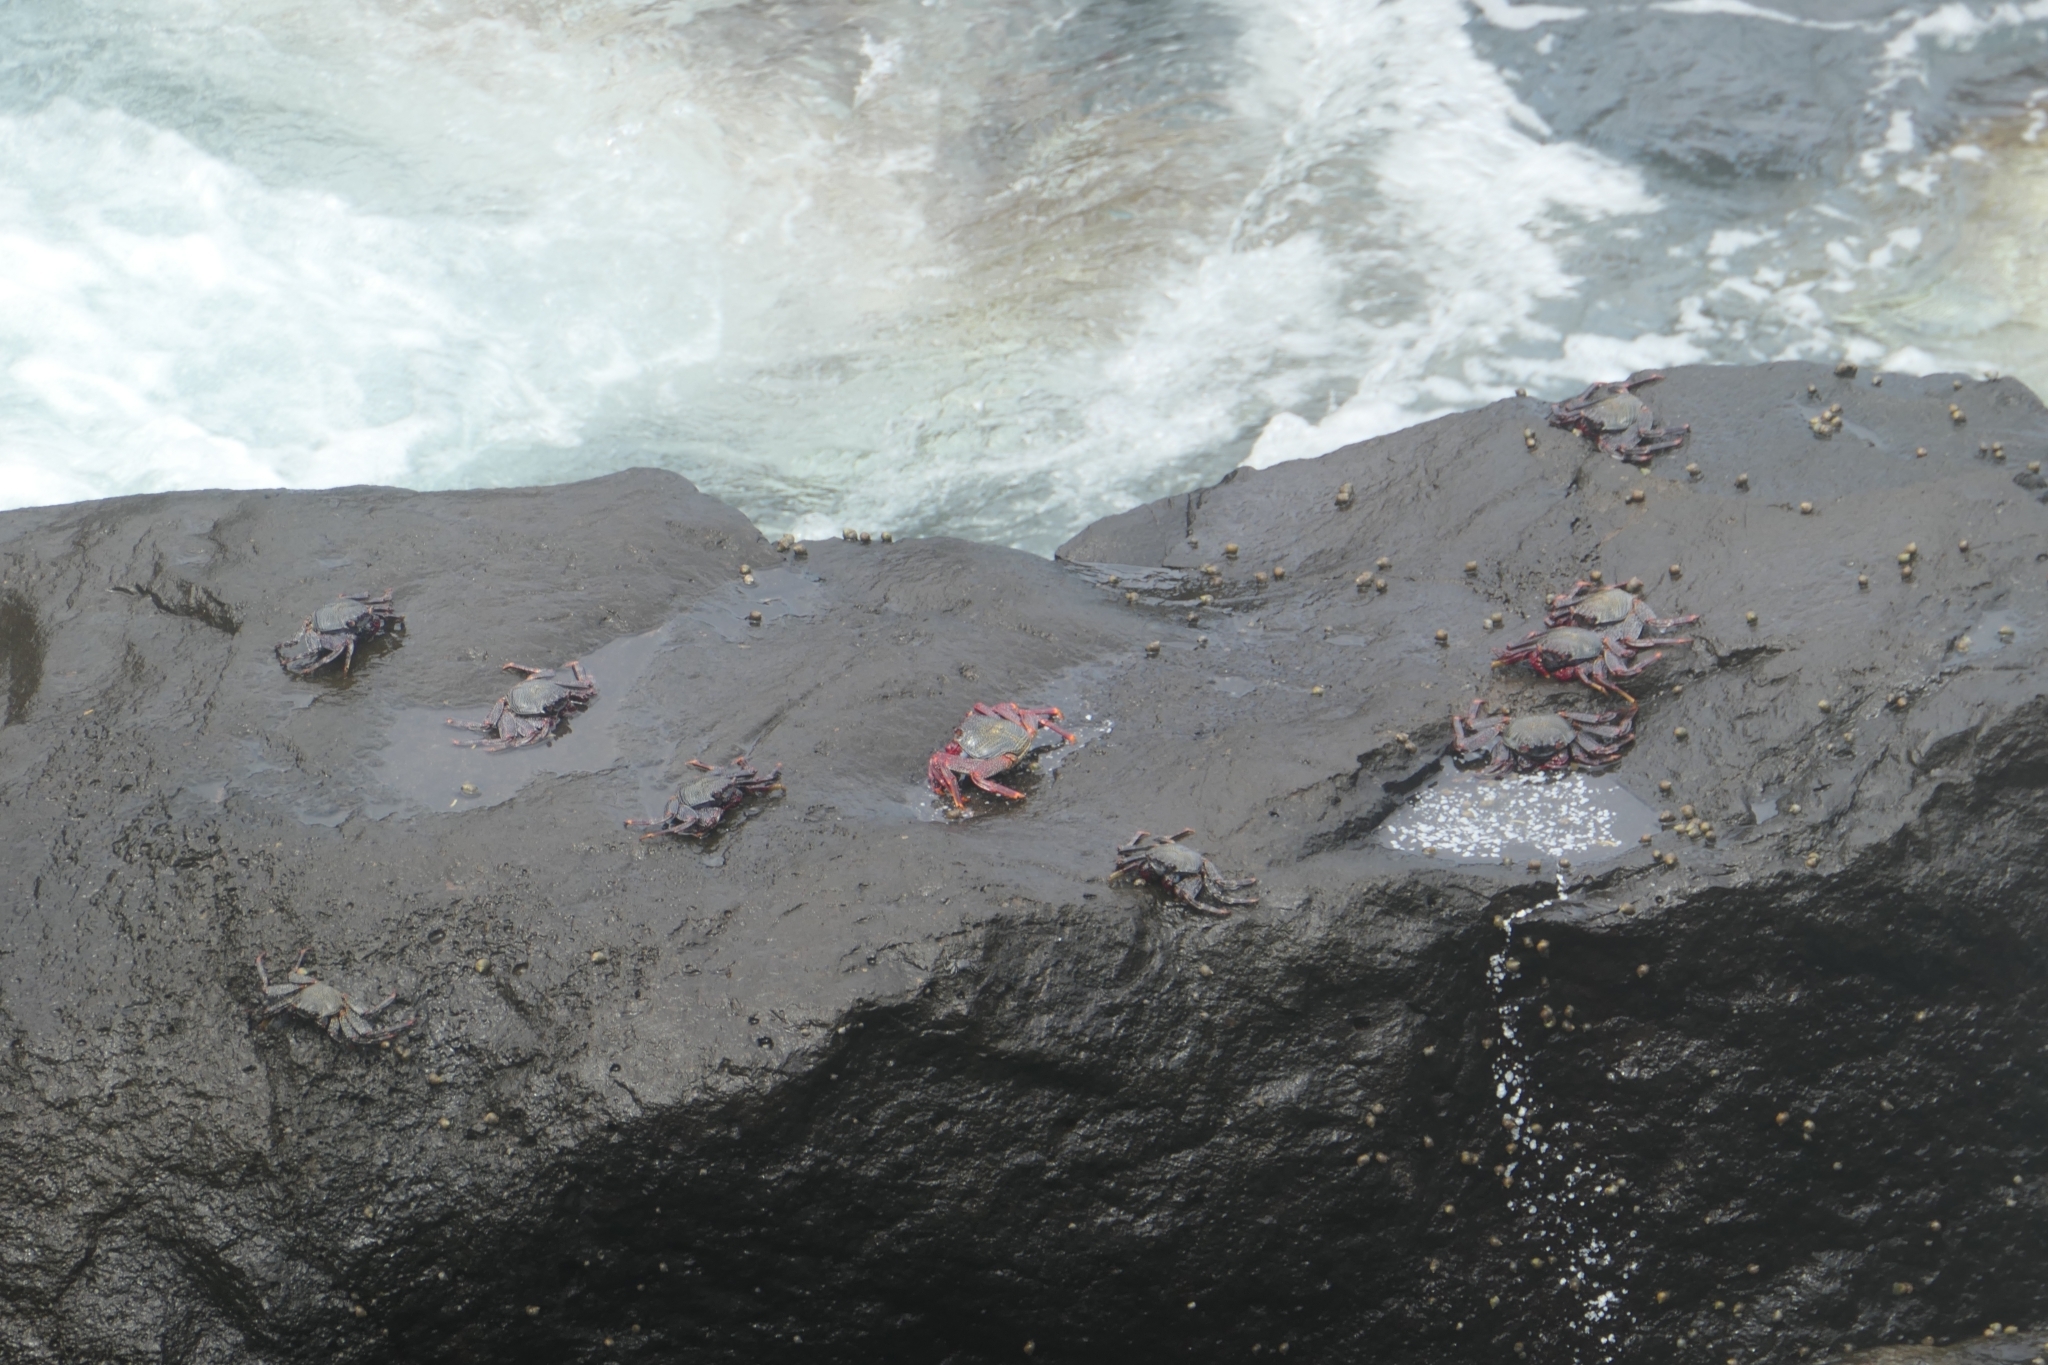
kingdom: Animalia
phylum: Arthropoda
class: Malacostraca
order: Decapoda
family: Grapsidae
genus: Grapsus
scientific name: Grapsus adscensionis
